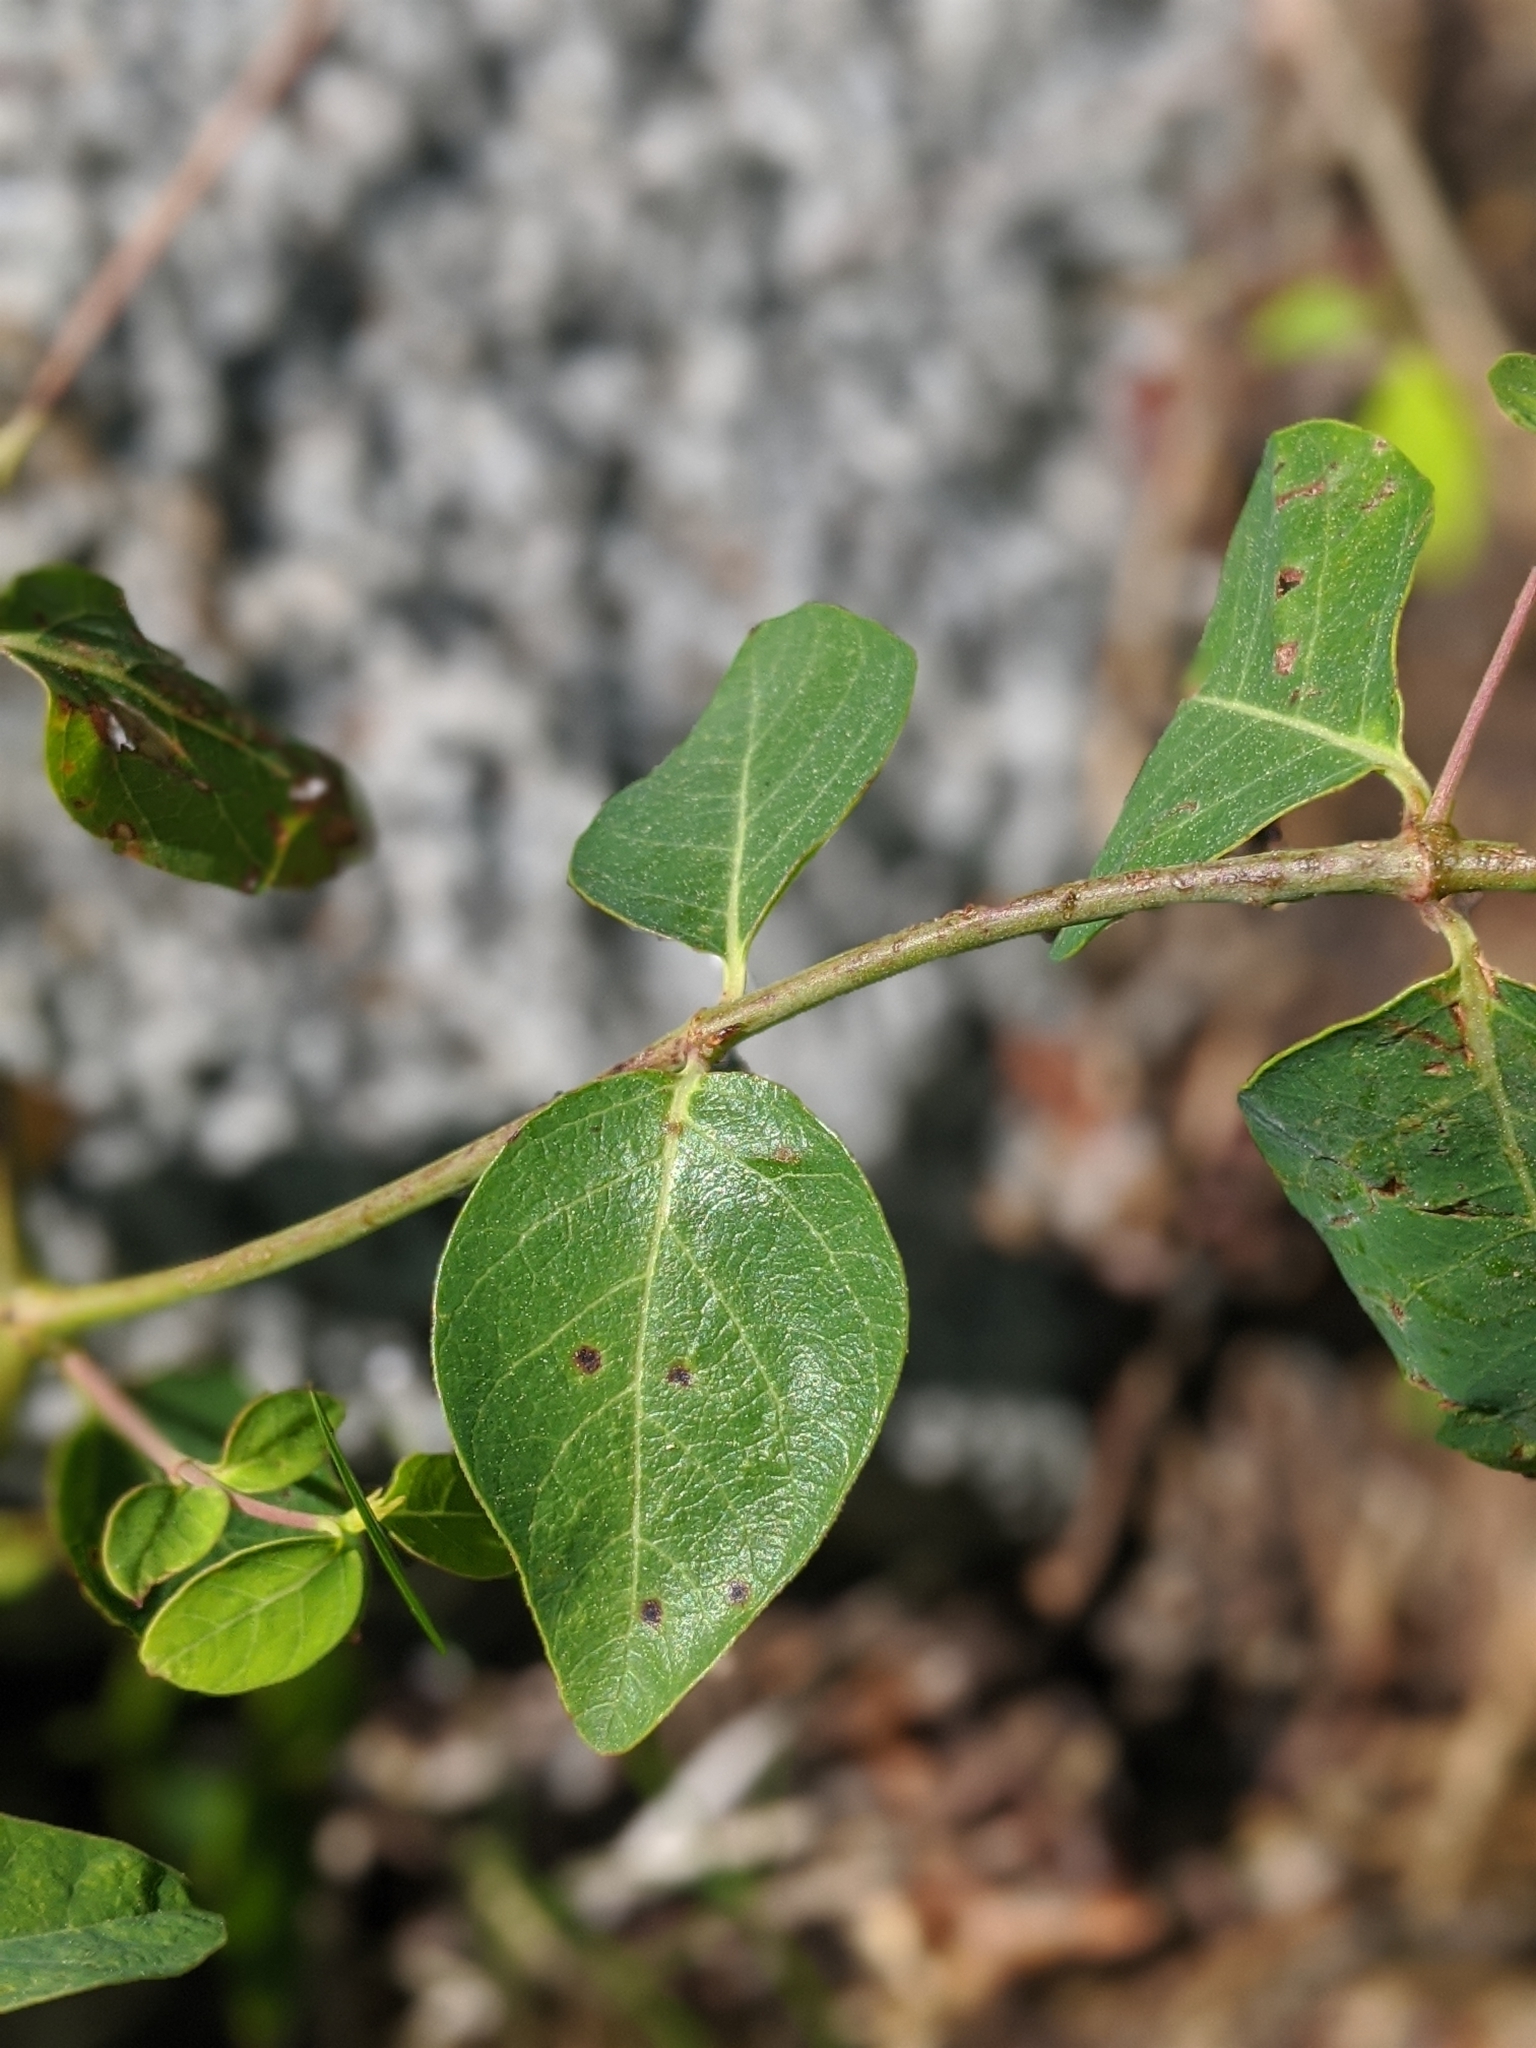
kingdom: Plantae
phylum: Tracheophyta
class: Magnoliopsida
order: Gentianales
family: Apocynaceae
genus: Apocynum
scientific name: Apocynum androsaemifolium
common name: Spreading dogbane
